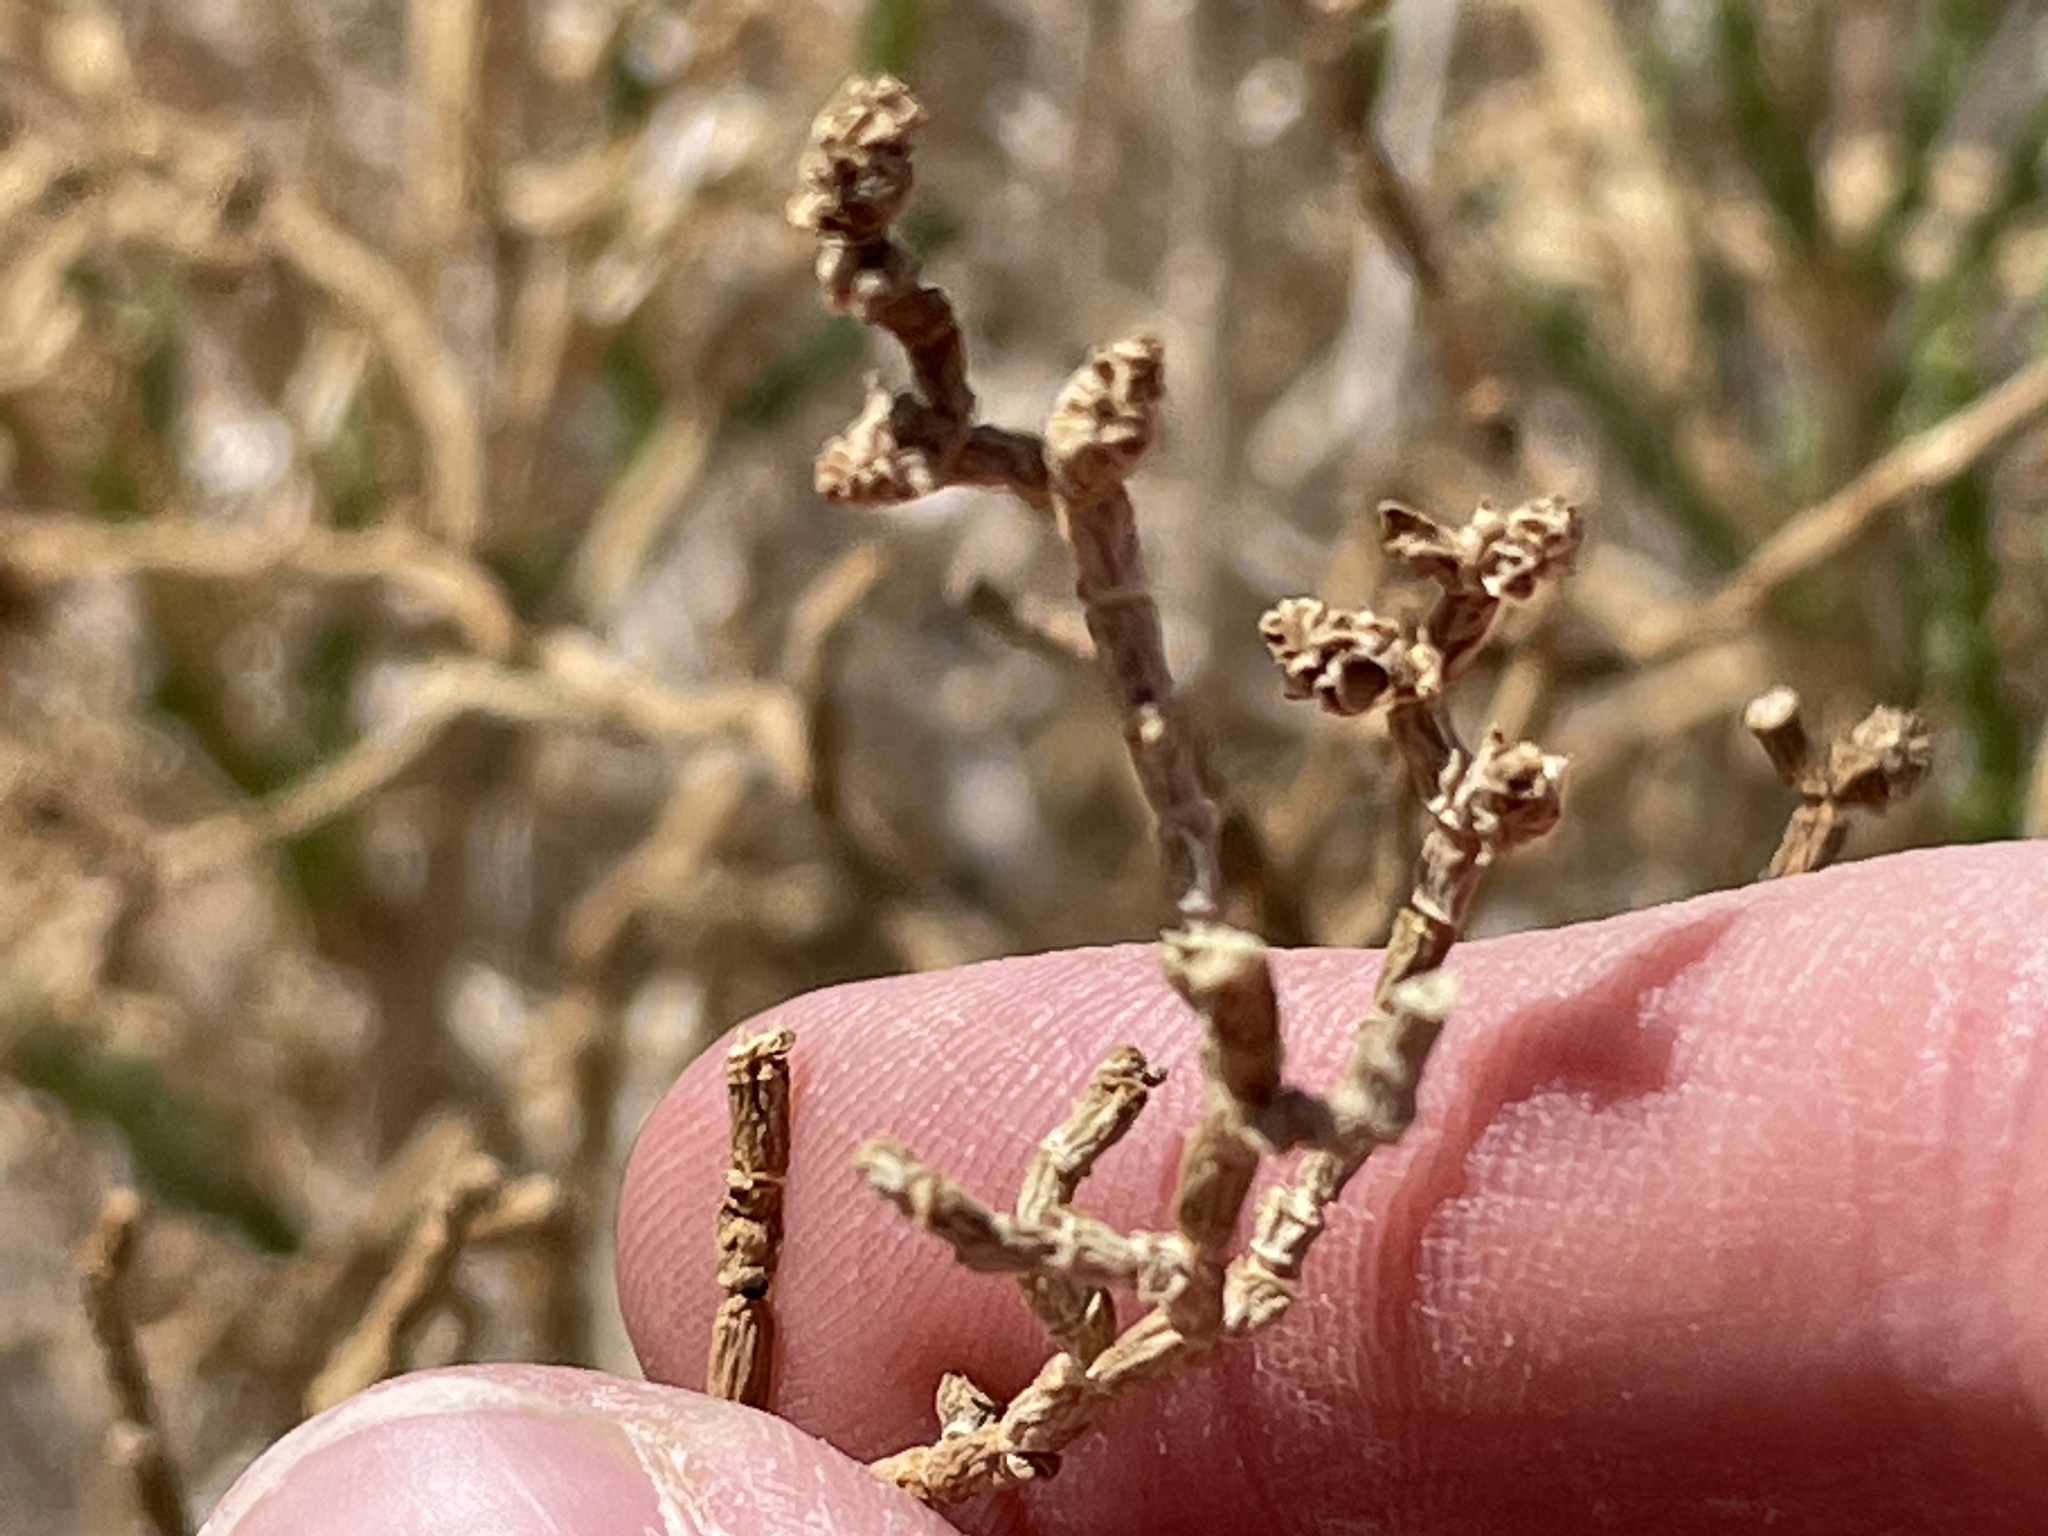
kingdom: Plantae
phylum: Tracheophyta
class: Magnoliopsida
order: Caryophyllales
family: Amaranthaceae
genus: Allenrolfea
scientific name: Allenrolfea occidentalis
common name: Iodine-bush
